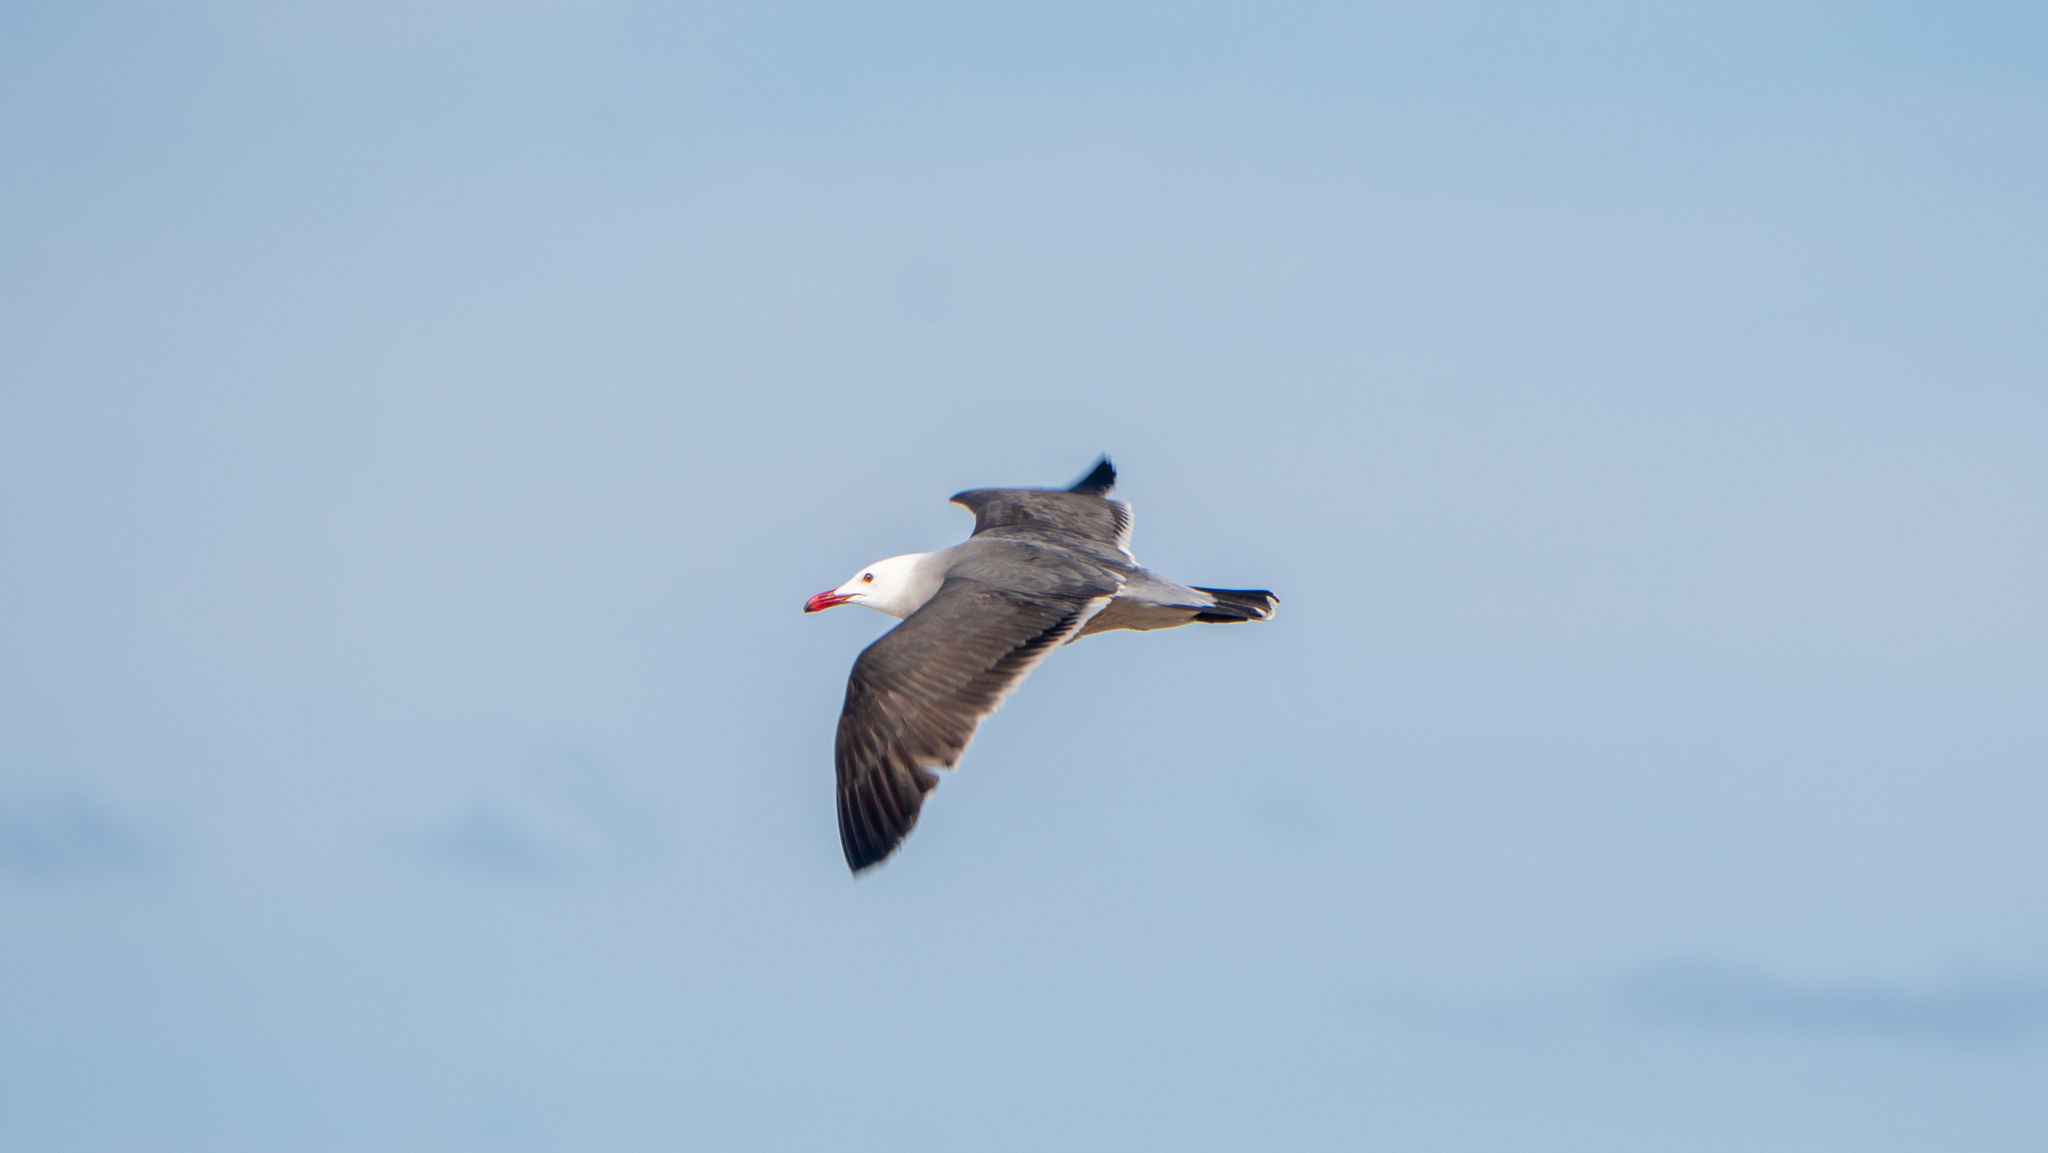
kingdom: Animalia
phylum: Chordata
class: Aves
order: Charadriiformes
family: Laridae
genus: Larus
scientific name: Larus heermanni
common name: Heermann's gull
